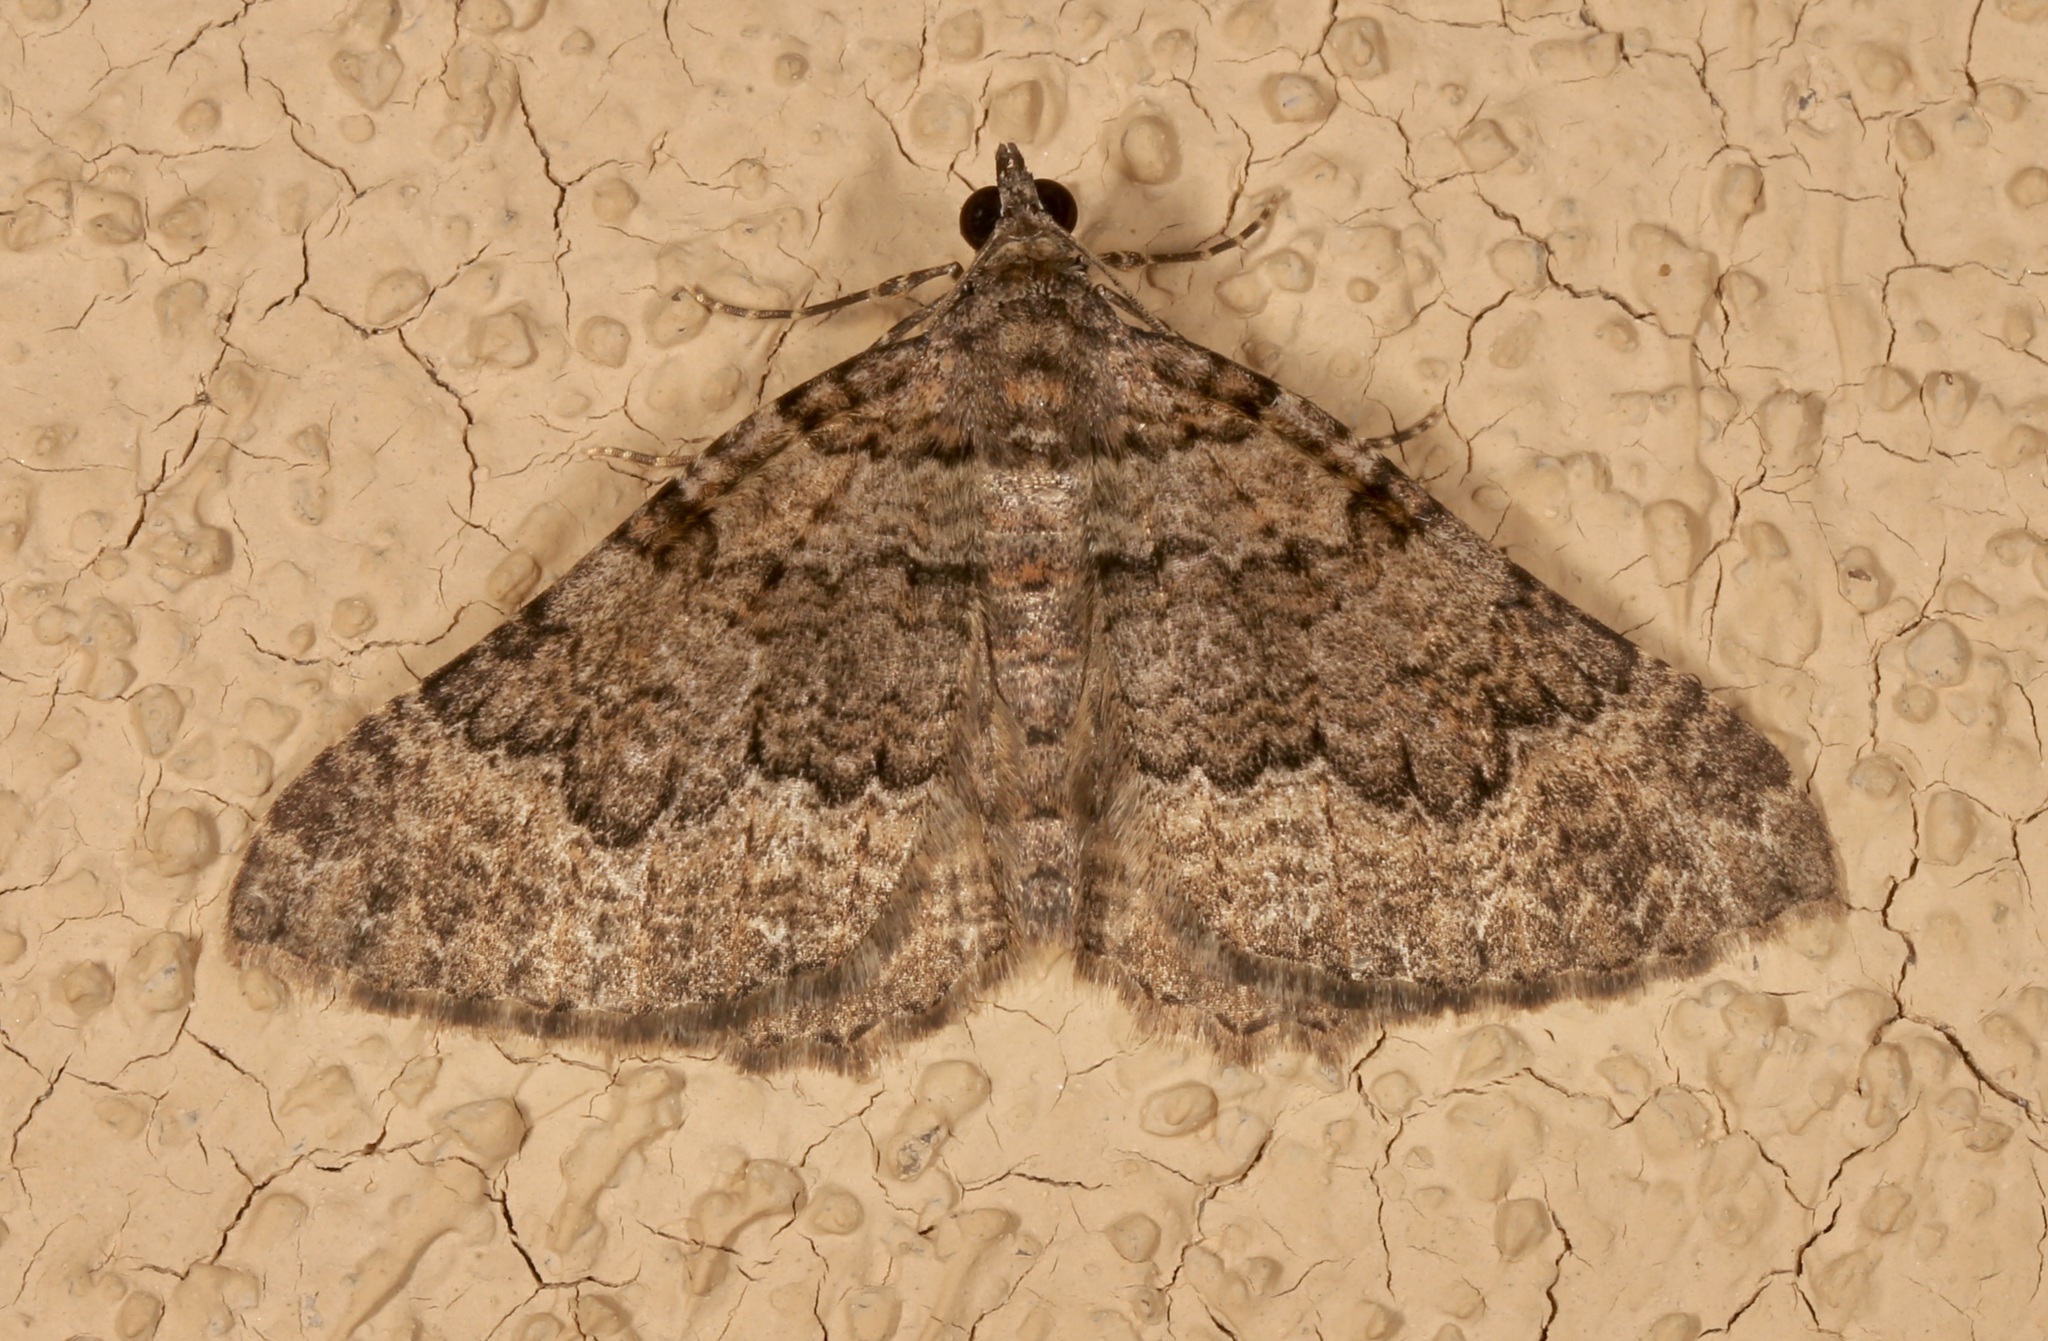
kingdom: Animalia
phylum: Arthropoda
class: Insecta
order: Lepidoptera
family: Geometridae
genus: Archirhoe
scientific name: Archirhoe neomexicana
